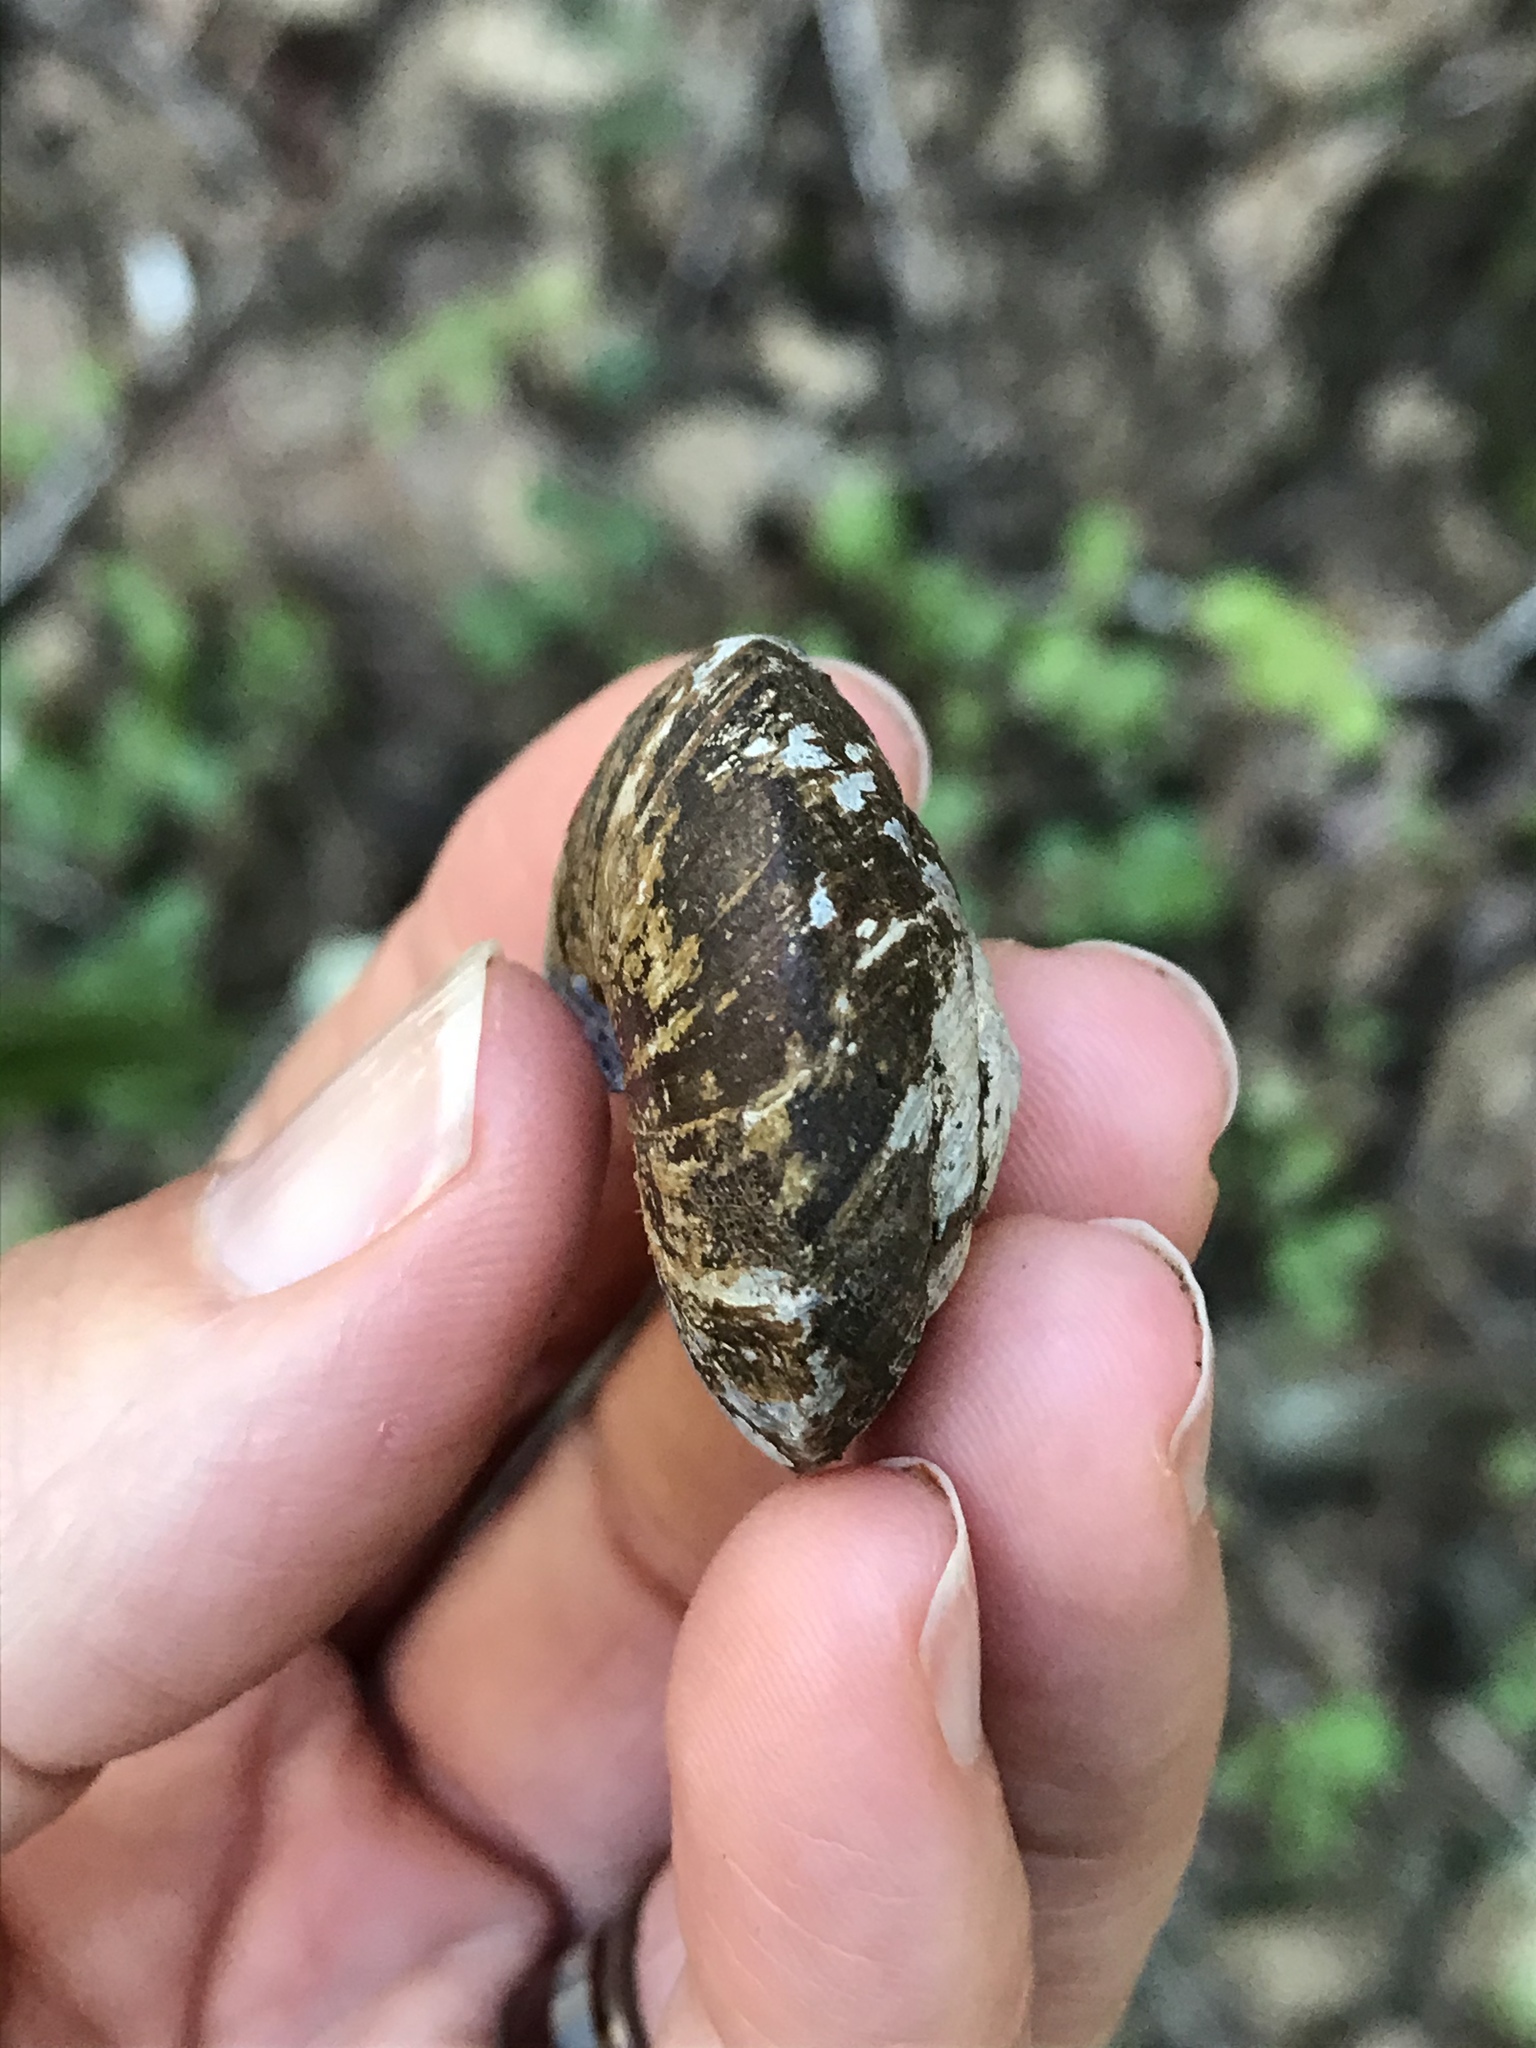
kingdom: Animalia
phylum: Mollusca
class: Gastropoda
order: Stylommatophora
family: Xanthonychidae
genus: Monadenia
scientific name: Monadenia infumata
